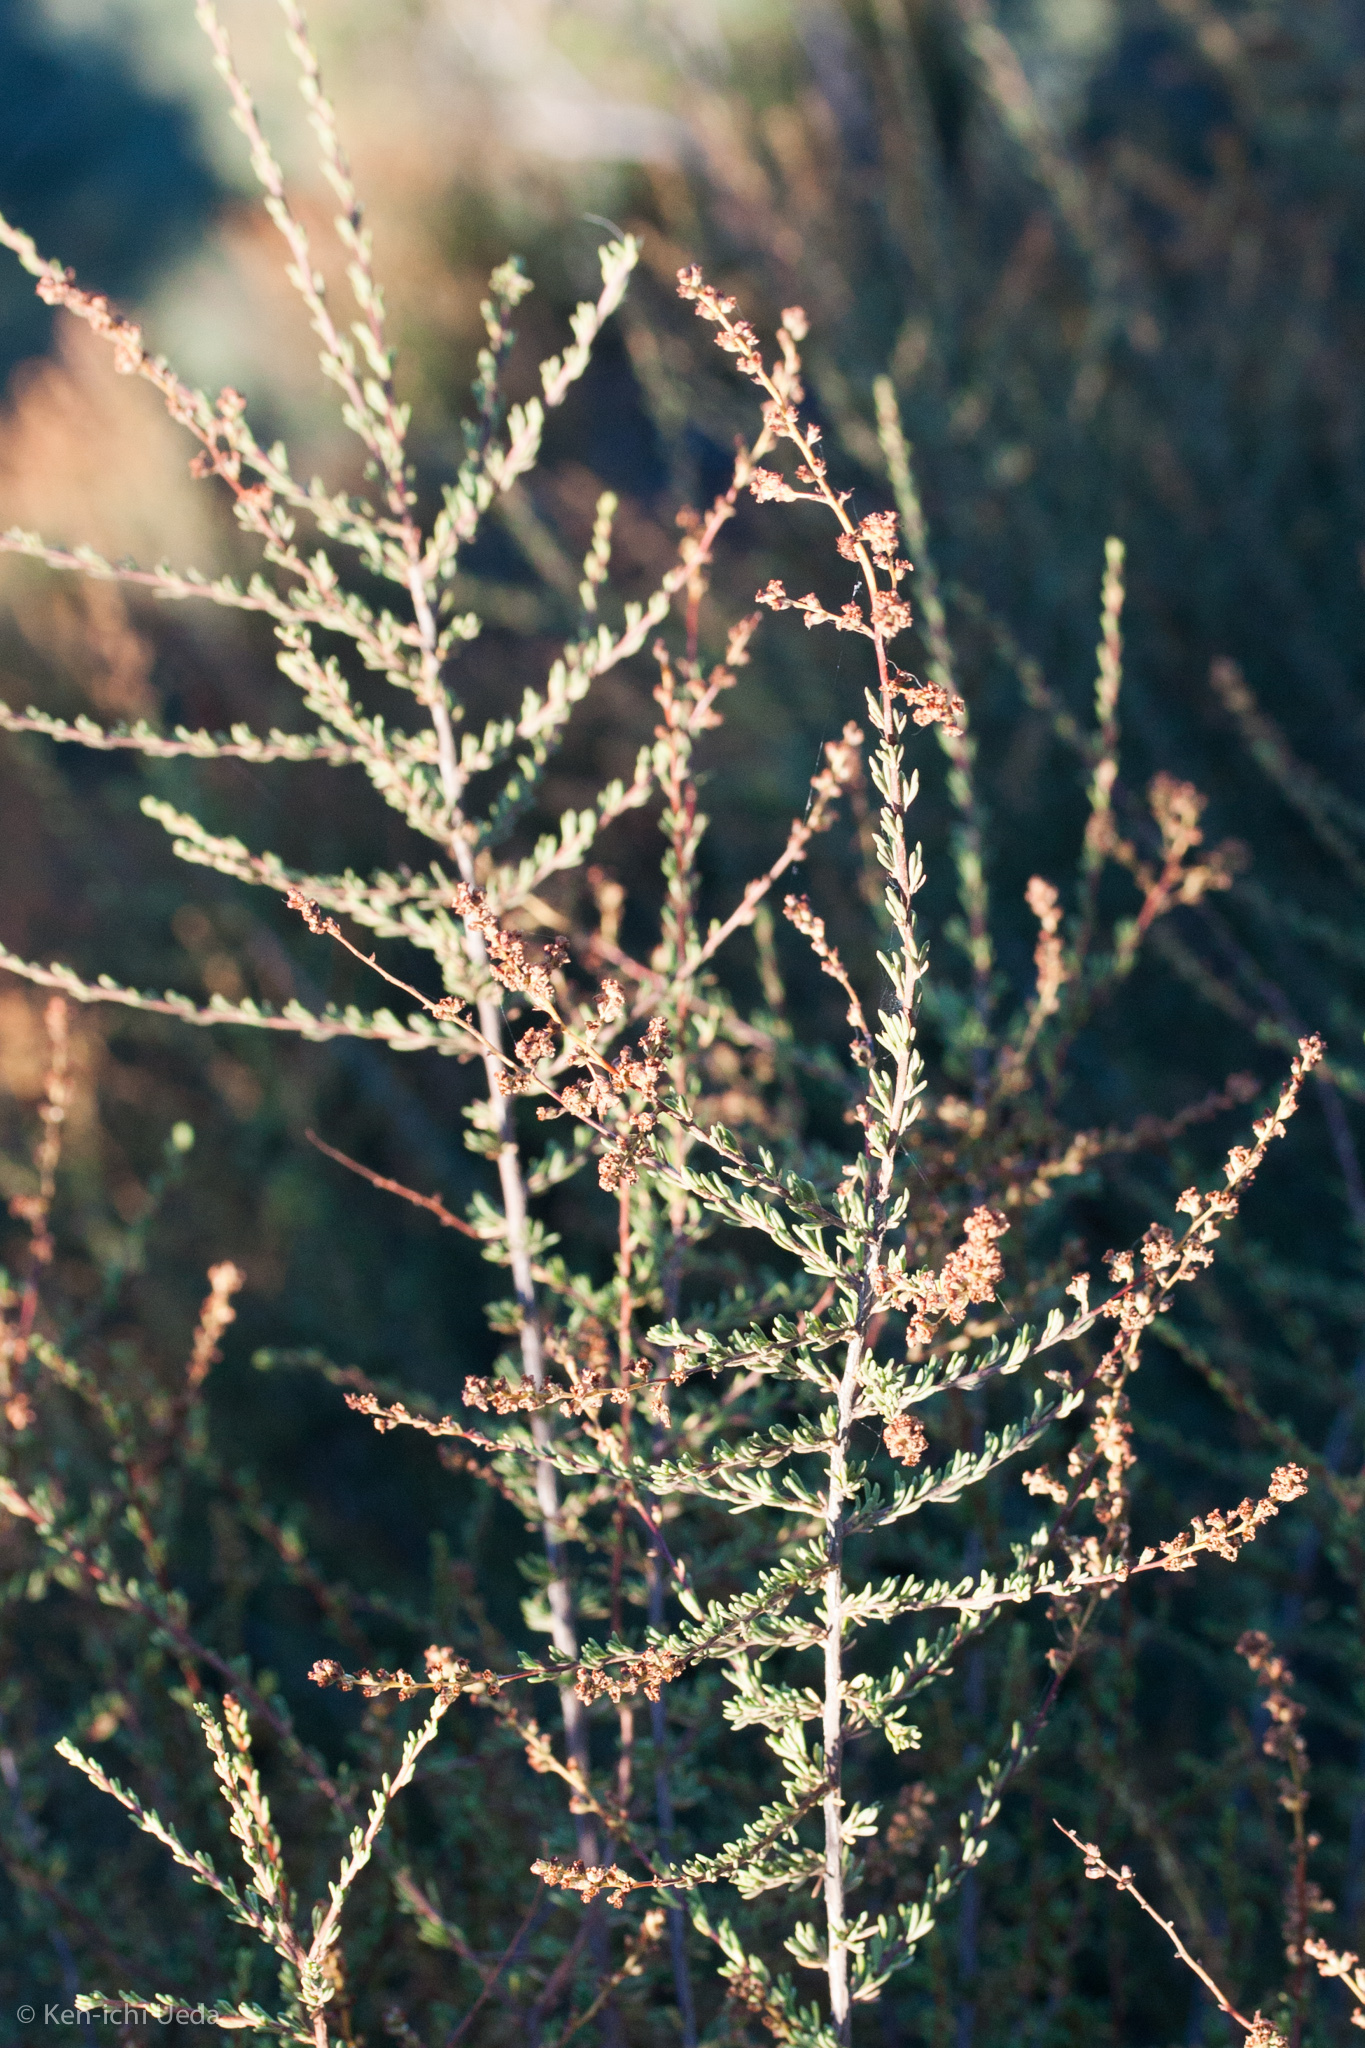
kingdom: Plantae
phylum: Tracheophyta
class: Magnoliopsida
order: Rosales
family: Rosaceae
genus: Adenostoma
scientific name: Adenostoma fasciculatum
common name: Chamise
